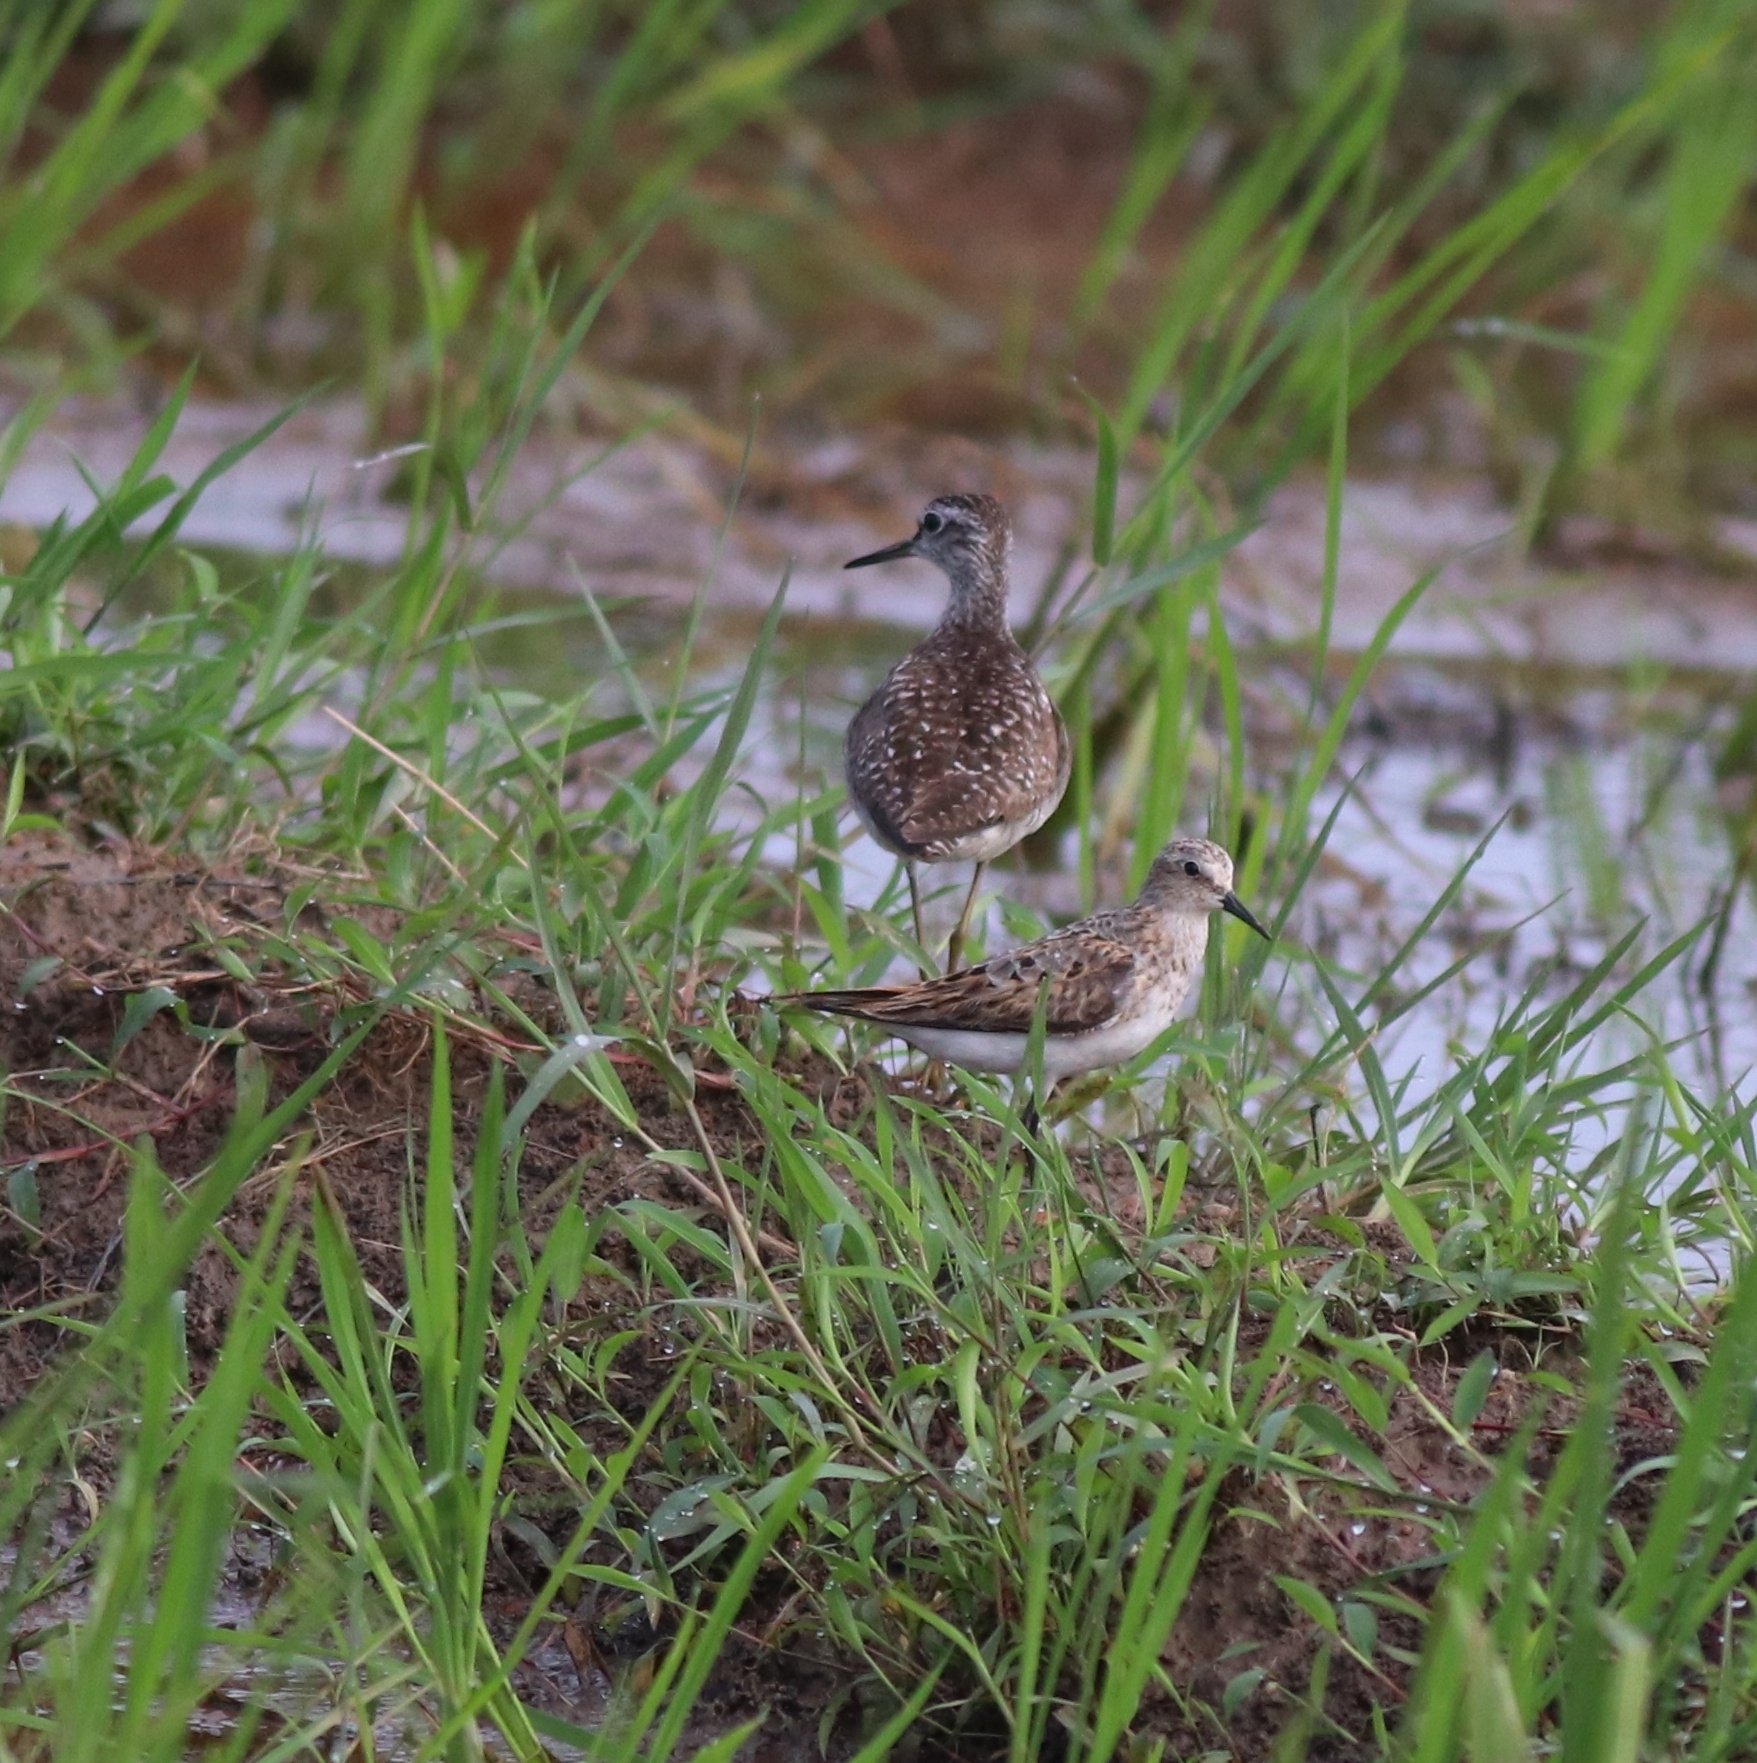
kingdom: Animalia
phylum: Chordata
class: Aves
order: Charadriiformes
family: Scolopacidae
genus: Calidris
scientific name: Calidris minuta
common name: Little stint
